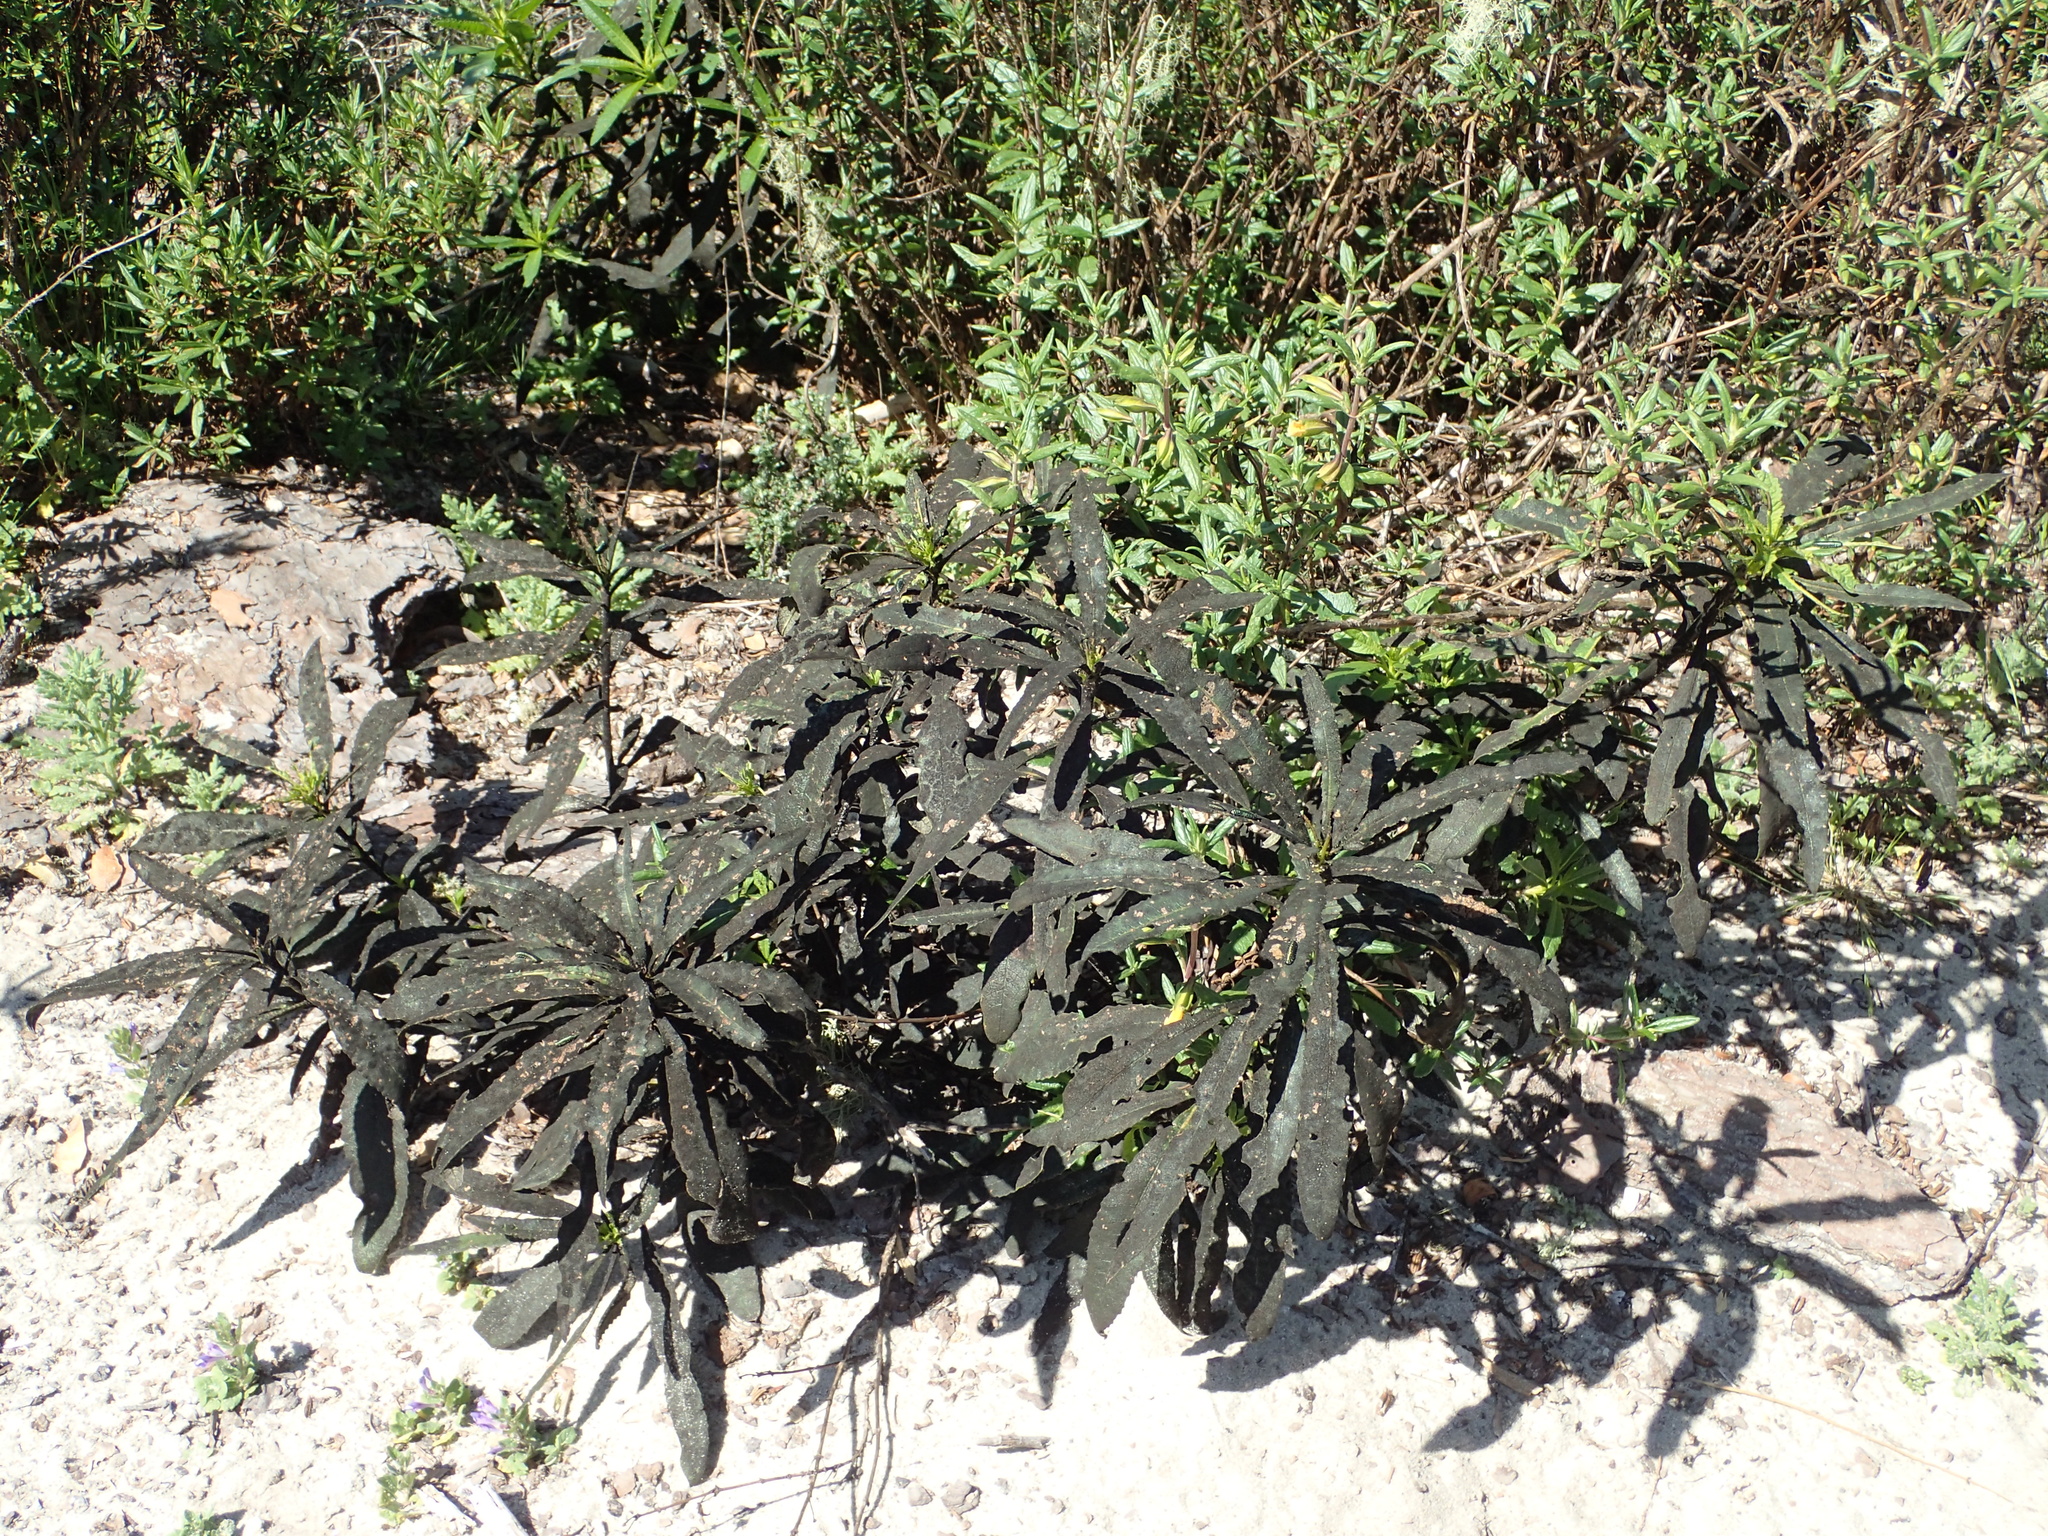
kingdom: Plantae
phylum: Tracheophyta
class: Magnoliopsida
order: Boraginales
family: Namaceae
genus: Eriodictyon
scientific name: Eriodictyon californicum
